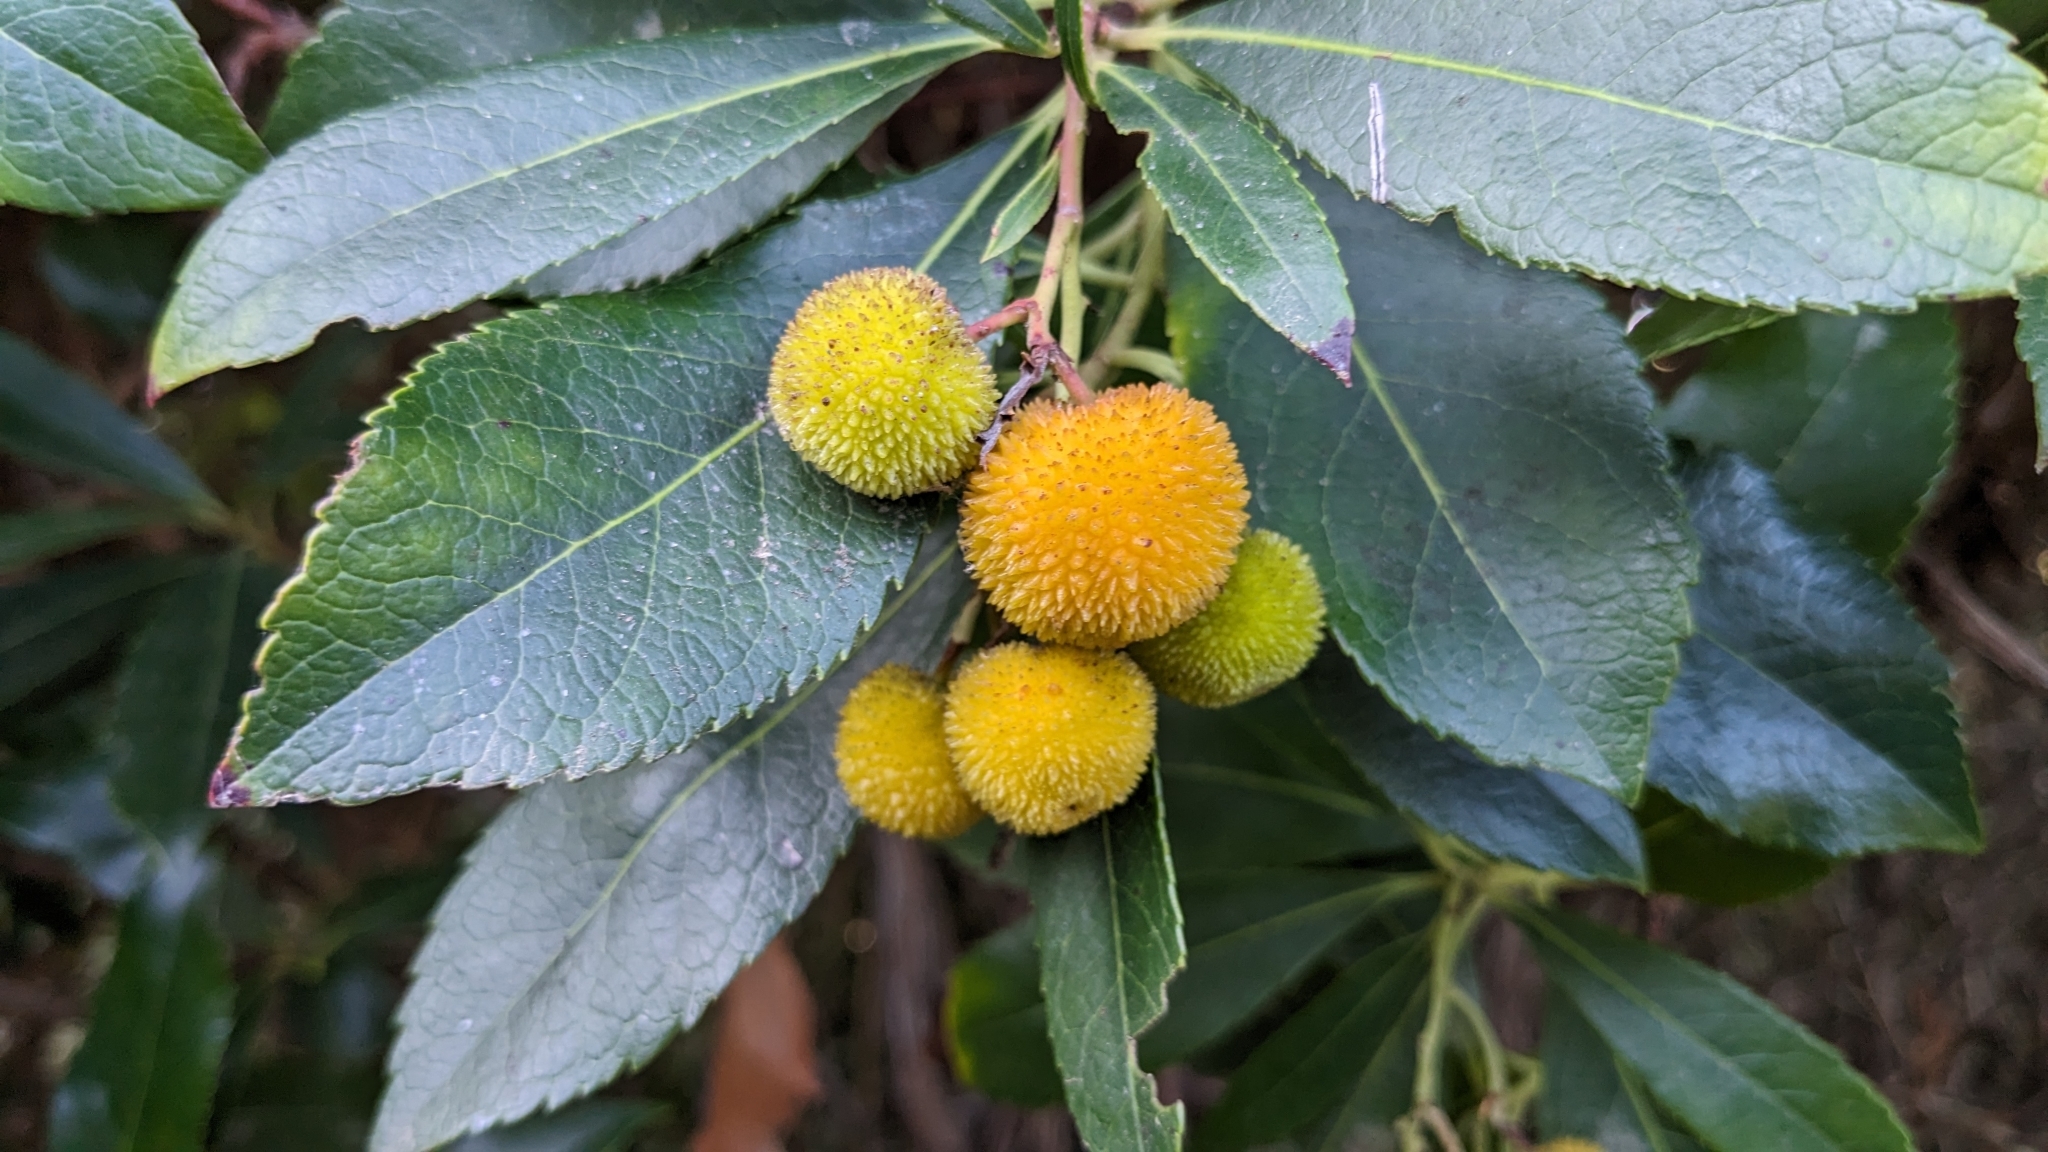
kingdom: Plantae
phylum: Tracheophyta
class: Magnoliopsida
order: Ericales
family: Ericaceae
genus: Arbutus
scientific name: Arbutus unedo
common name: Strawberry-tree
